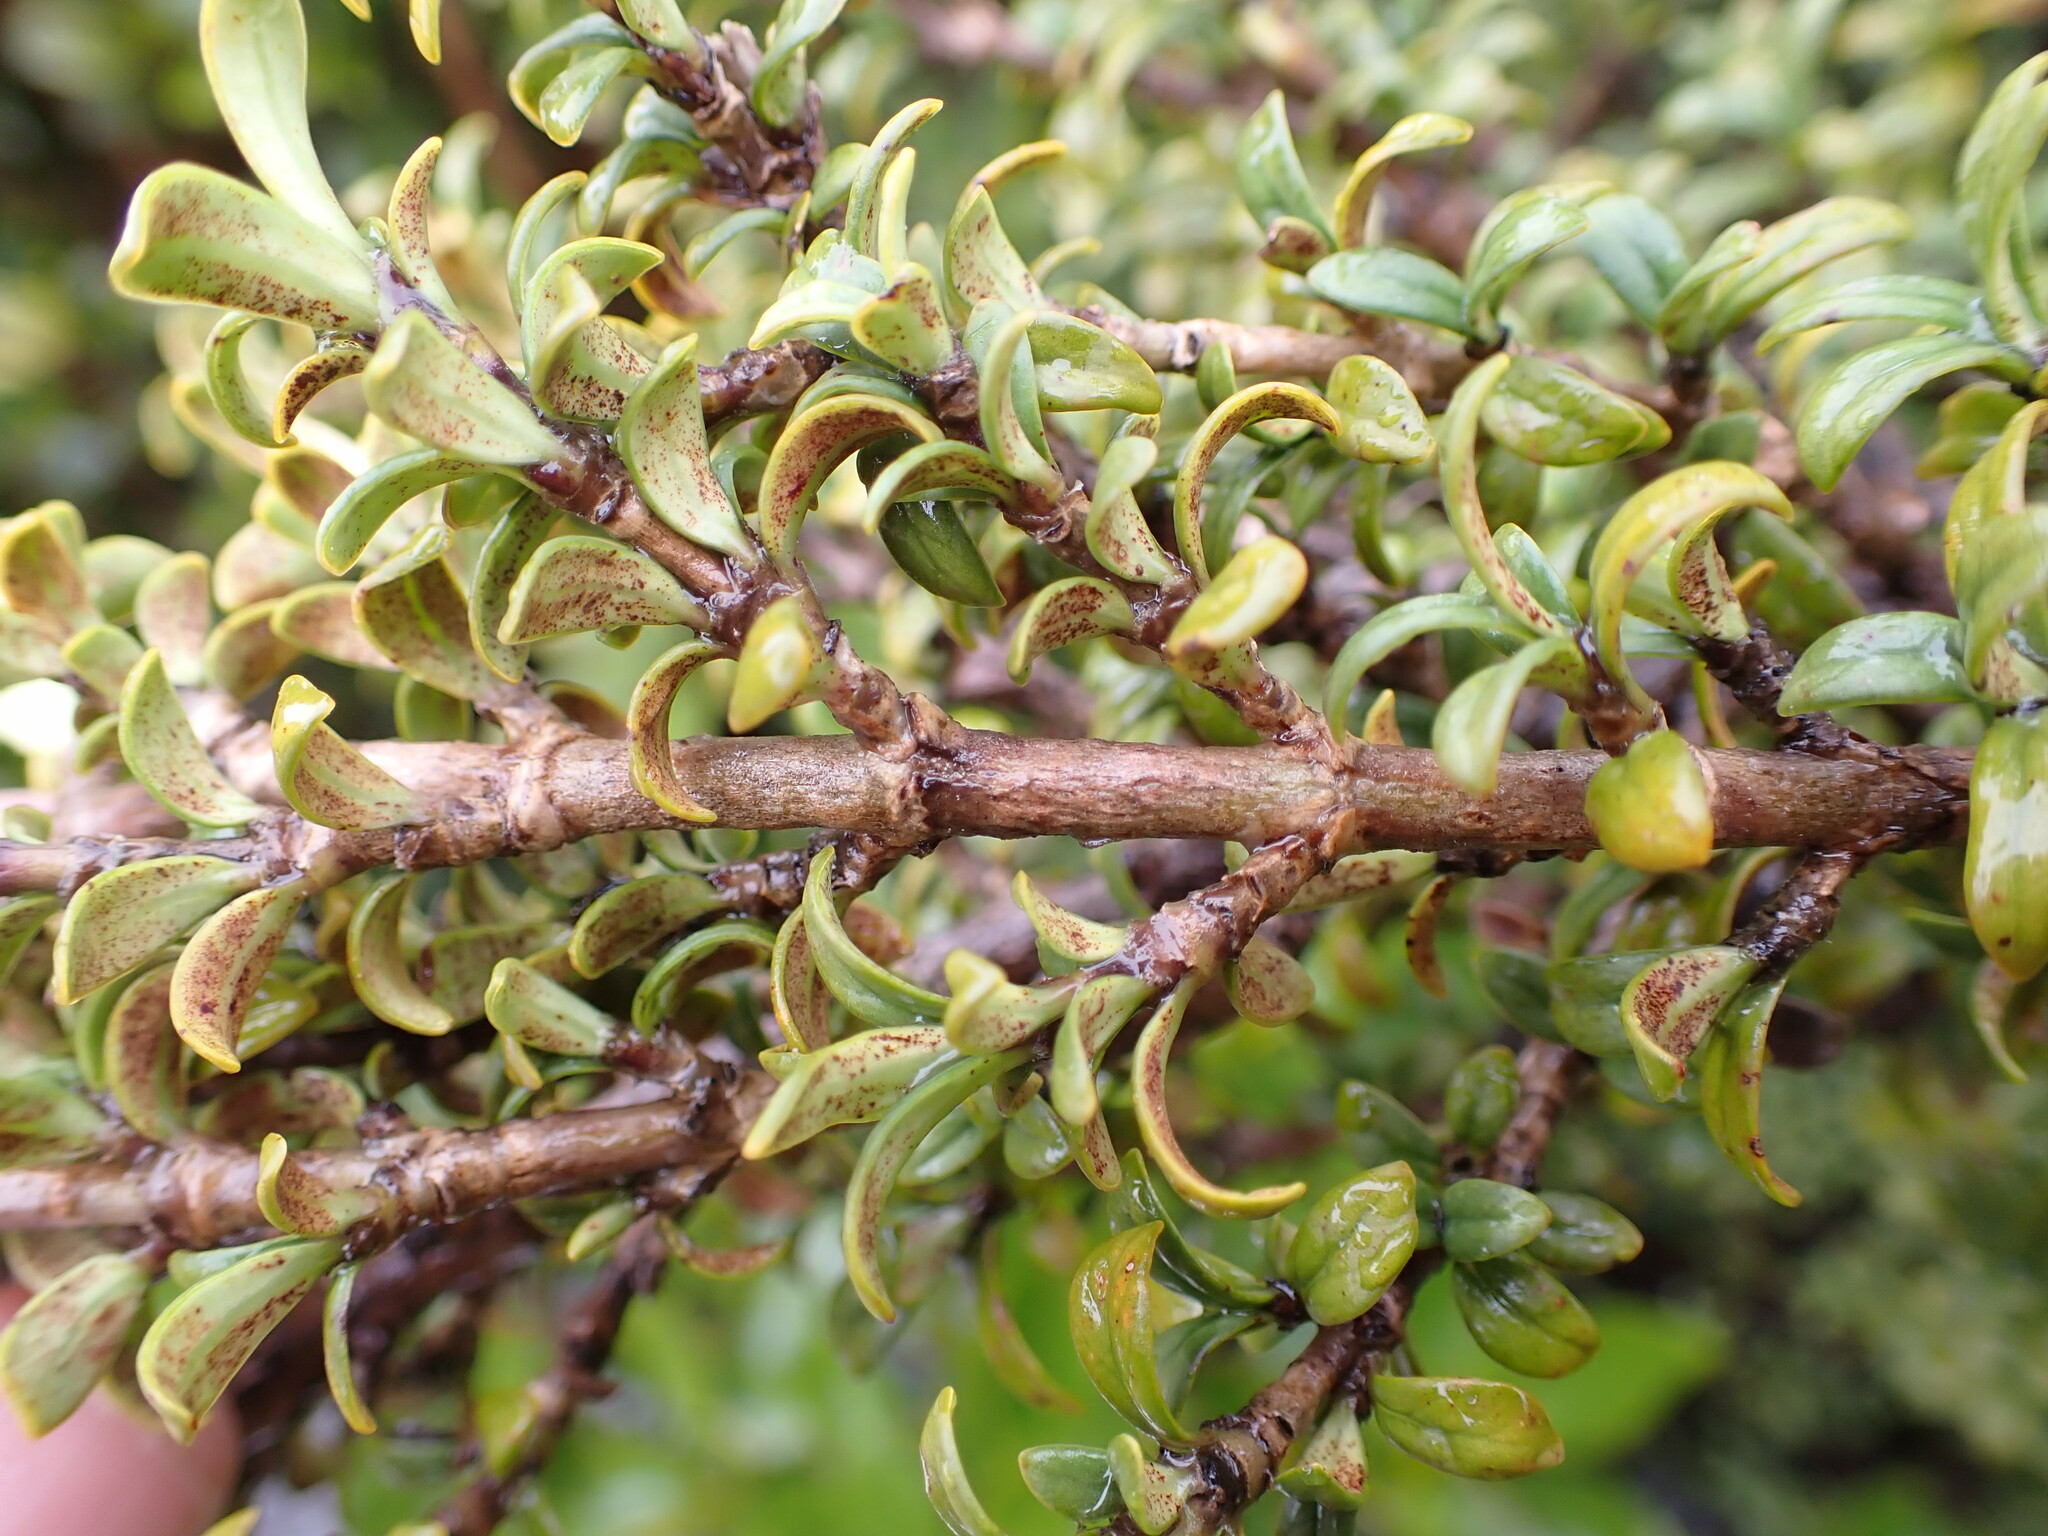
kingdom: Plantae
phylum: Tracheophyta
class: Magnoliopsida
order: Gentianales
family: Rubiaceae
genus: Coprosma
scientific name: Coprosma pseudocuneata
